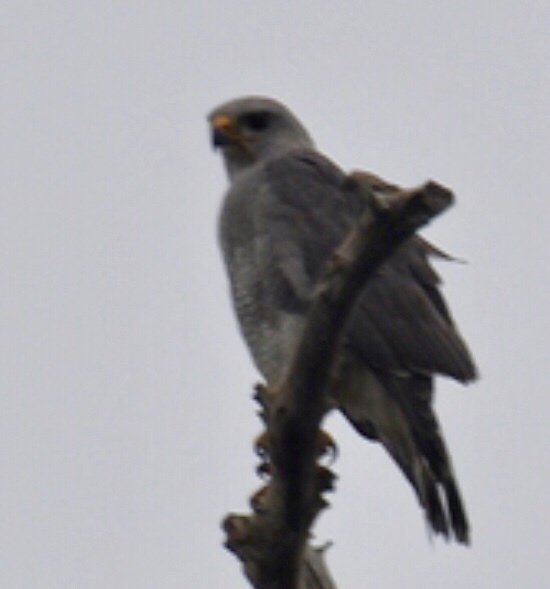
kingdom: Animalia
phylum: Chordata
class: Aves
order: Accipitriformes
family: Accipitridae
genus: Buteo
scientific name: Buteo nitidus
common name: Grey-lined hawk
